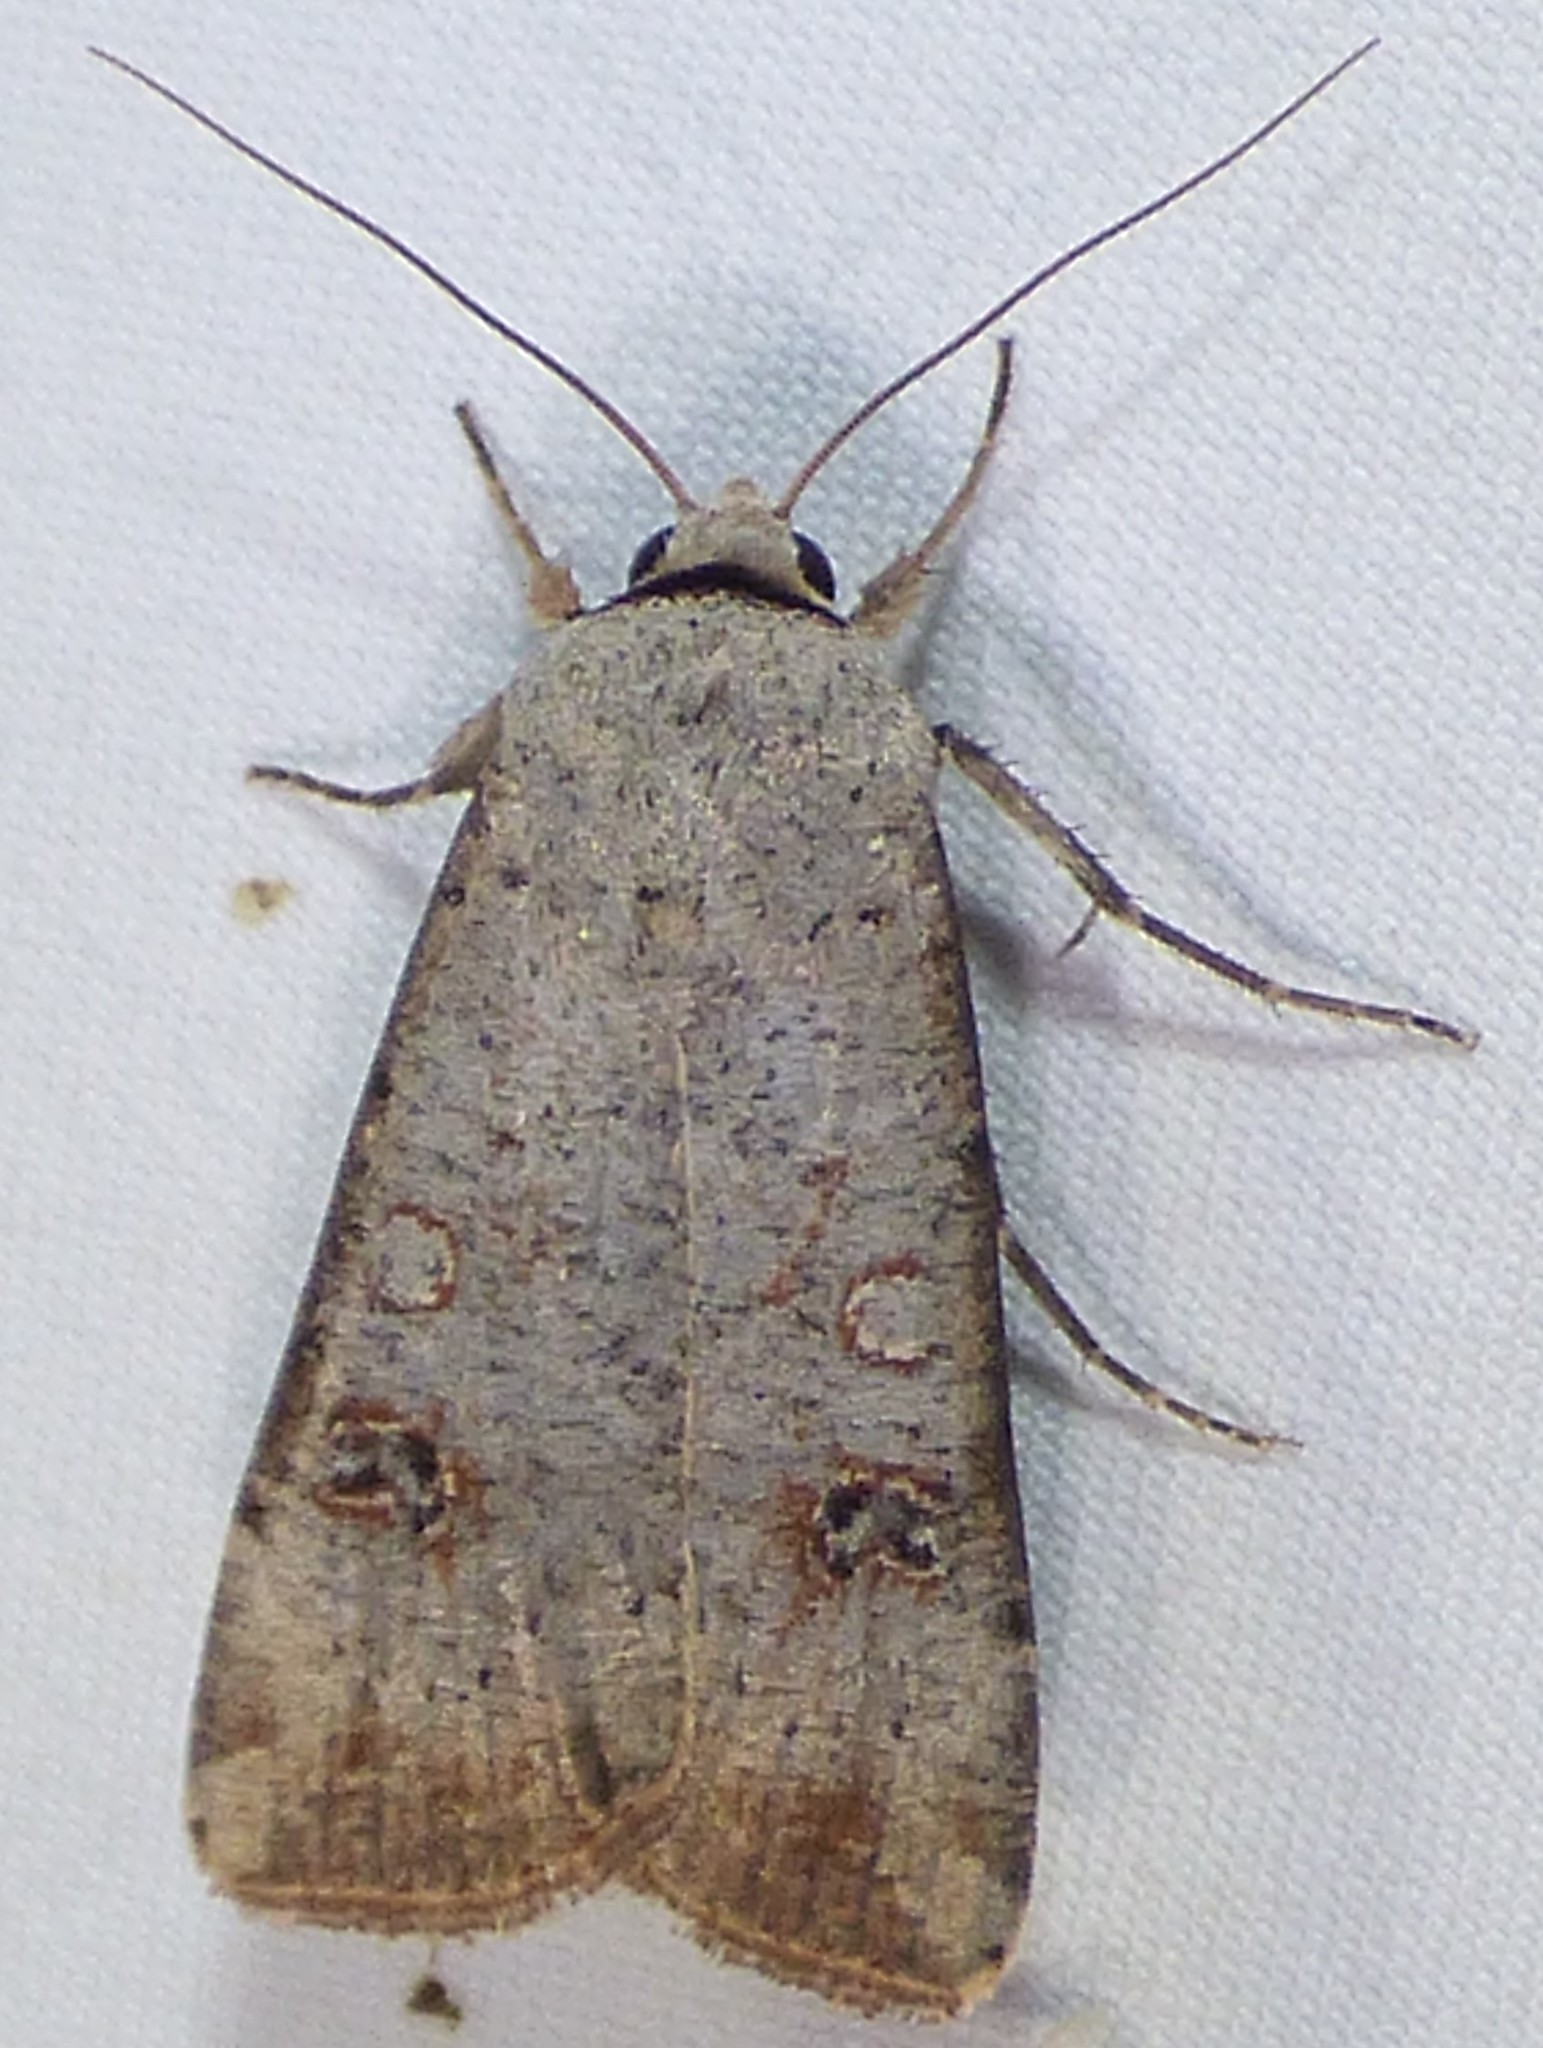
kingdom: Animalia
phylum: Arthropoda
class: Insecta
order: Lepidoptera
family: Noctuidae
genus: Anicla
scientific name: Anicla infecta
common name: Green cutworm
